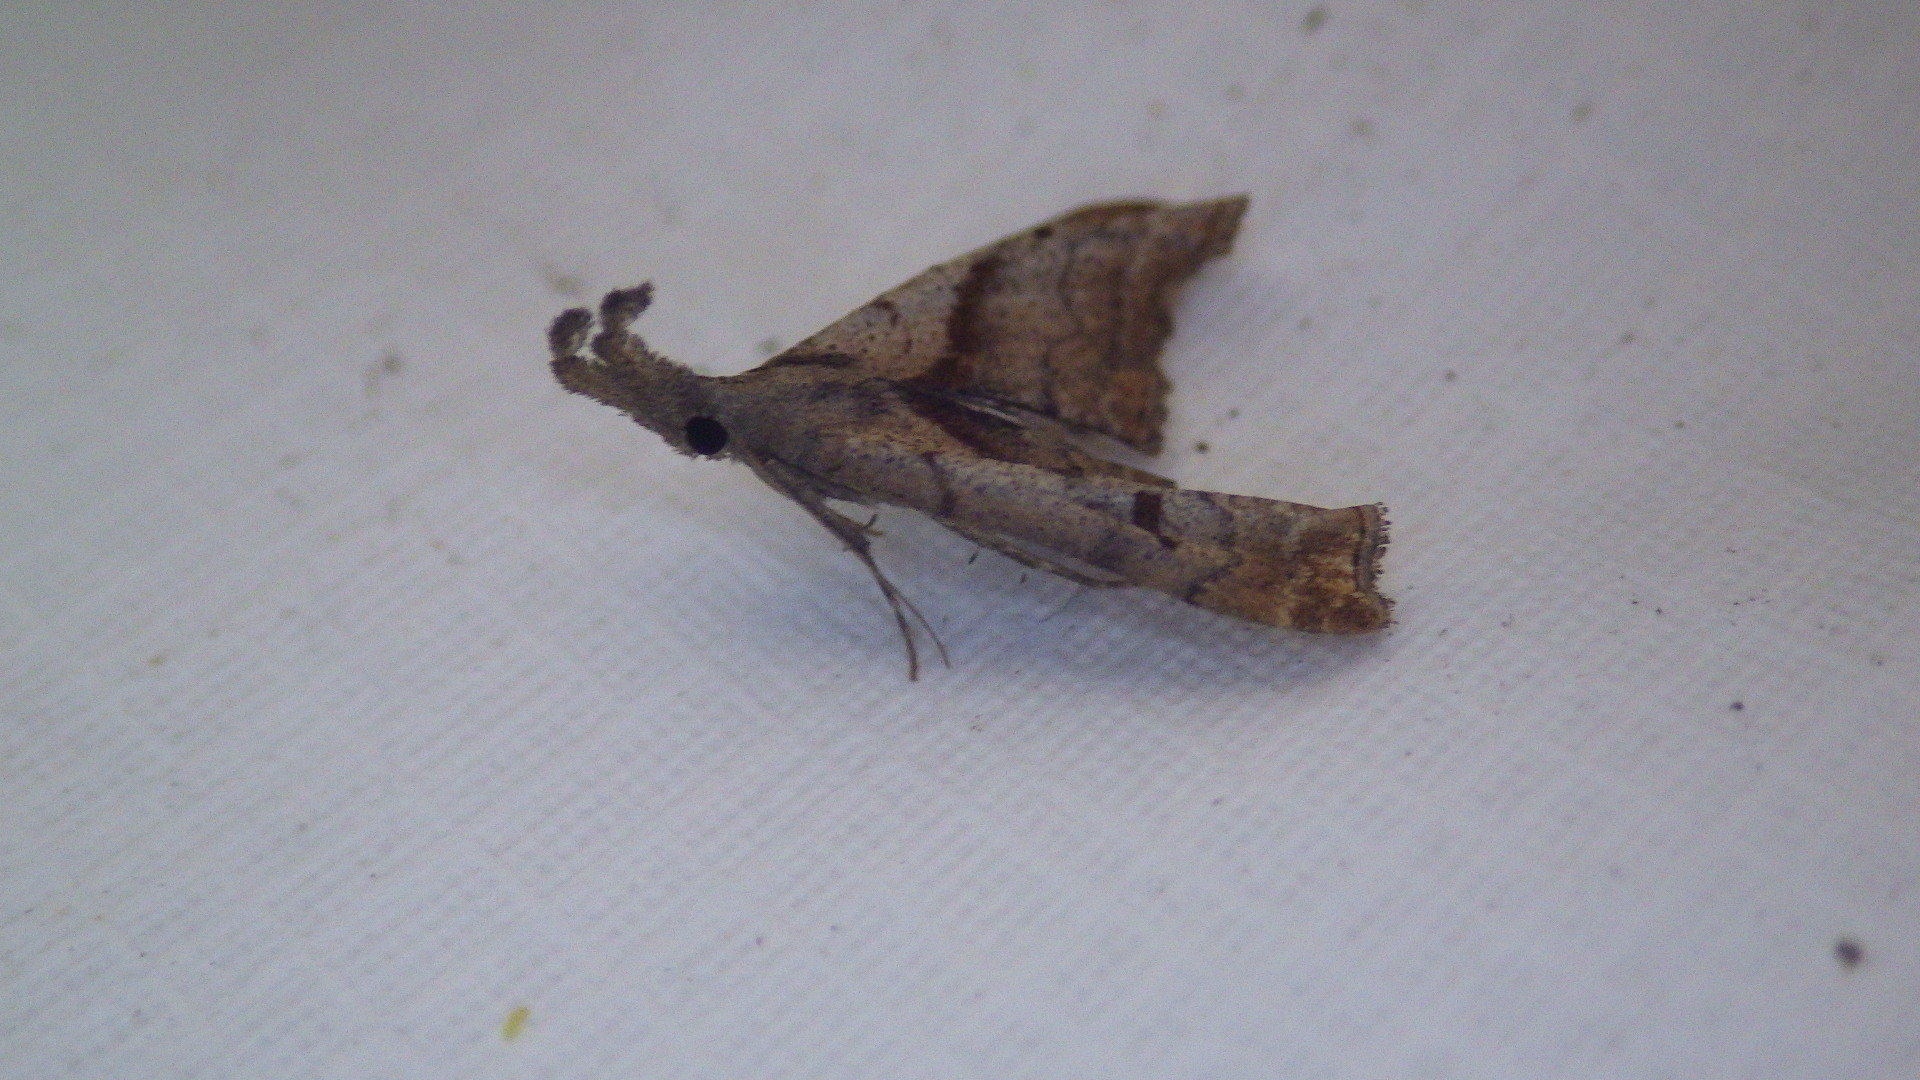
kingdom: Animalia
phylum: Arthropoda
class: Insecta
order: Lepidoptera
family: Erebidae
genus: Palthis
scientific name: Palthis angulalis
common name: Dark-spotted palthis moth
